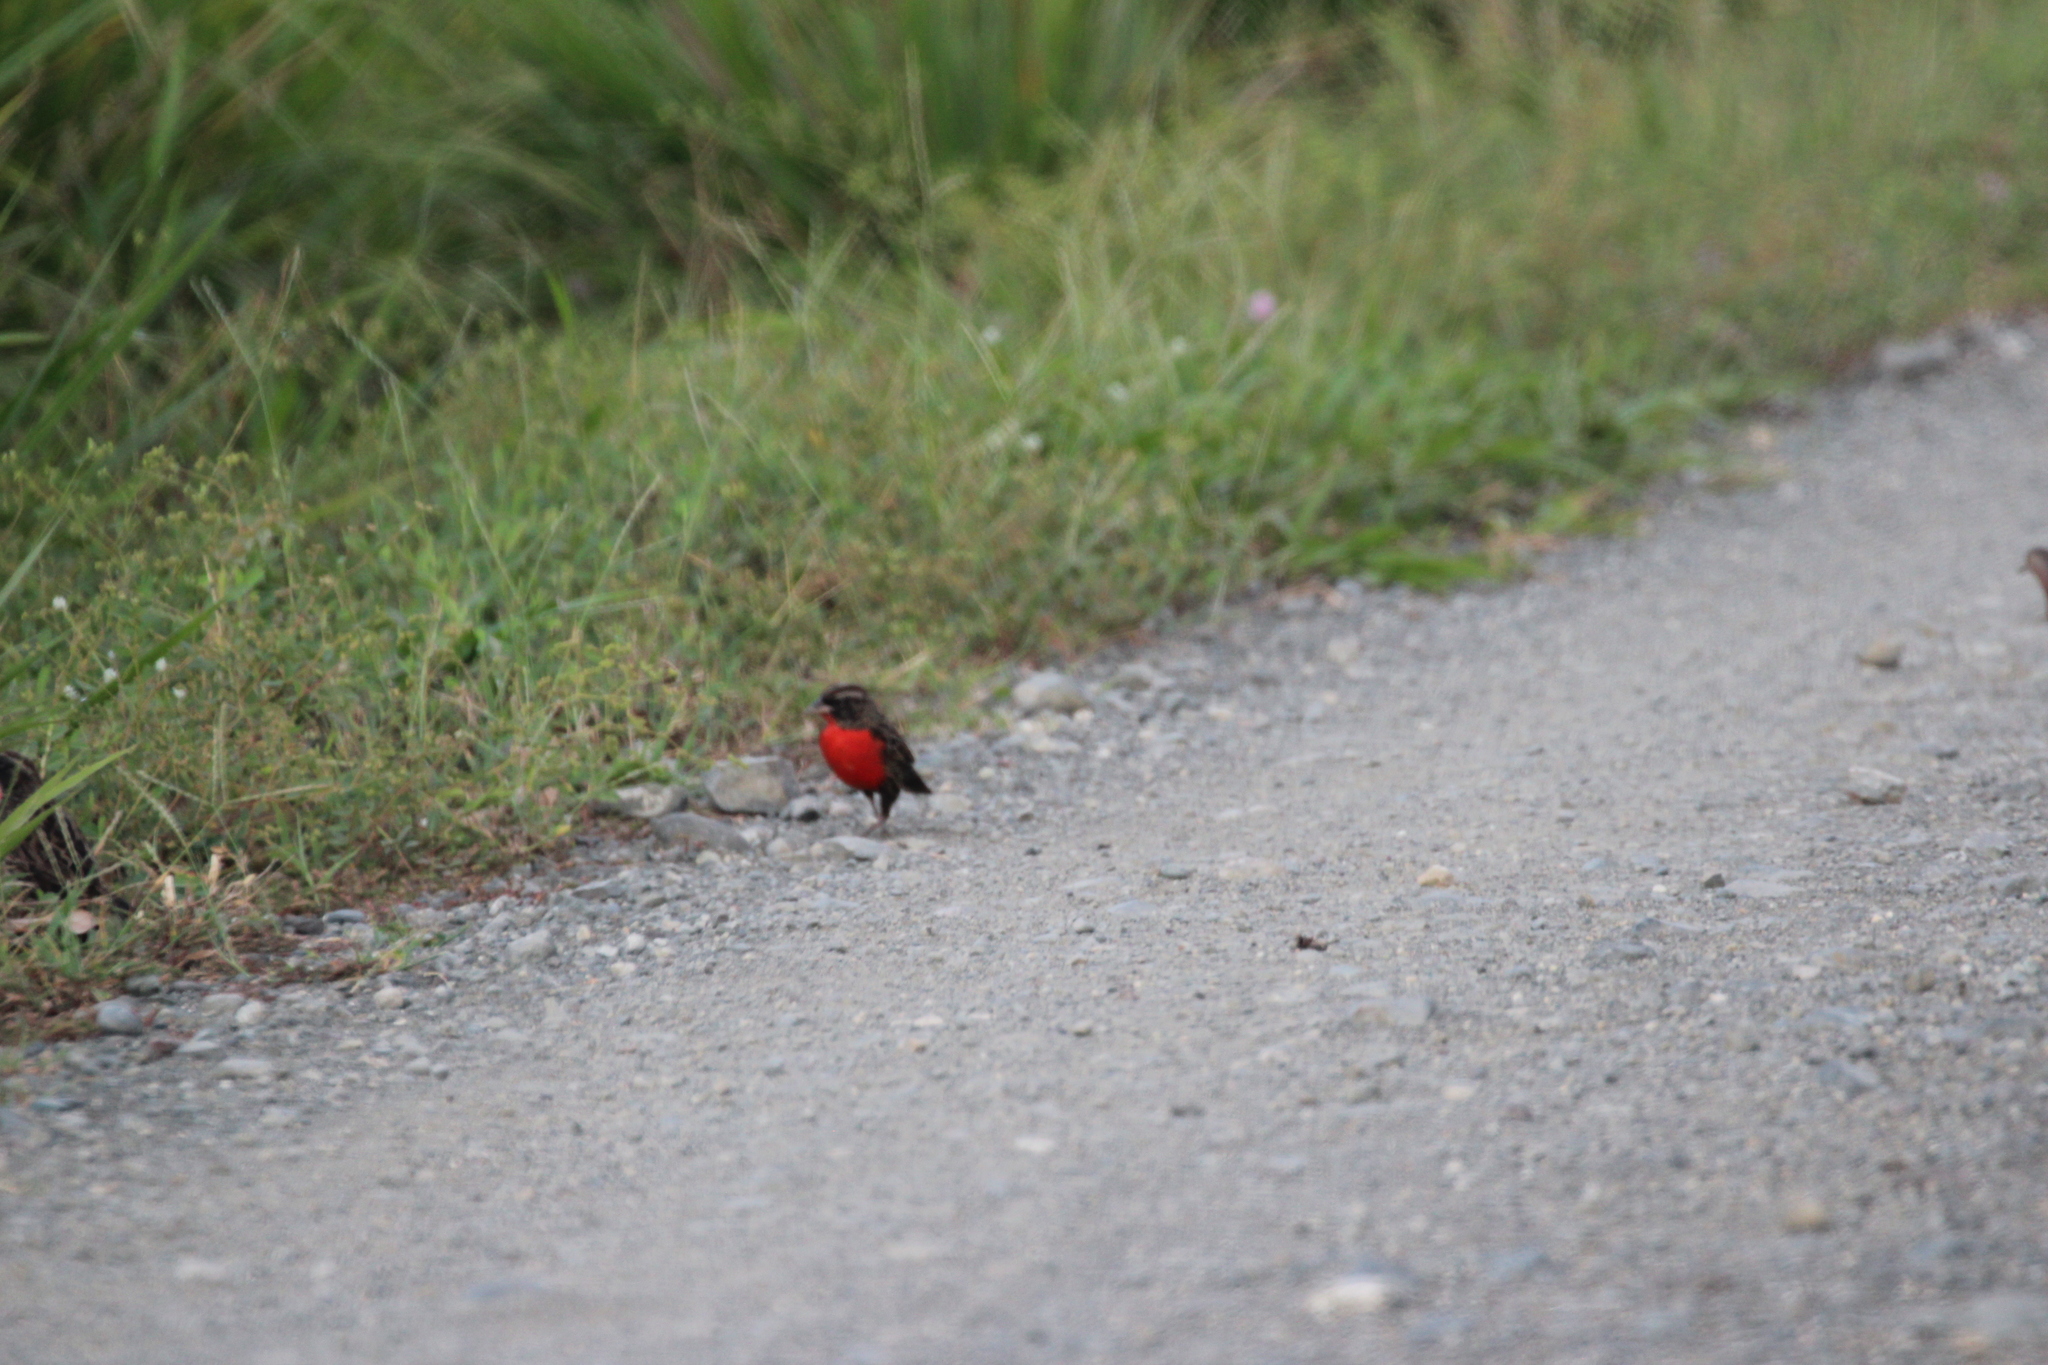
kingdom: Animalia
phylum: Chordata
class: Aves
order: Passeriformes
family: Icteridae
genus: Sturnella
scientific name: Sturnella militaris
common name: Red-breasted blackbird
